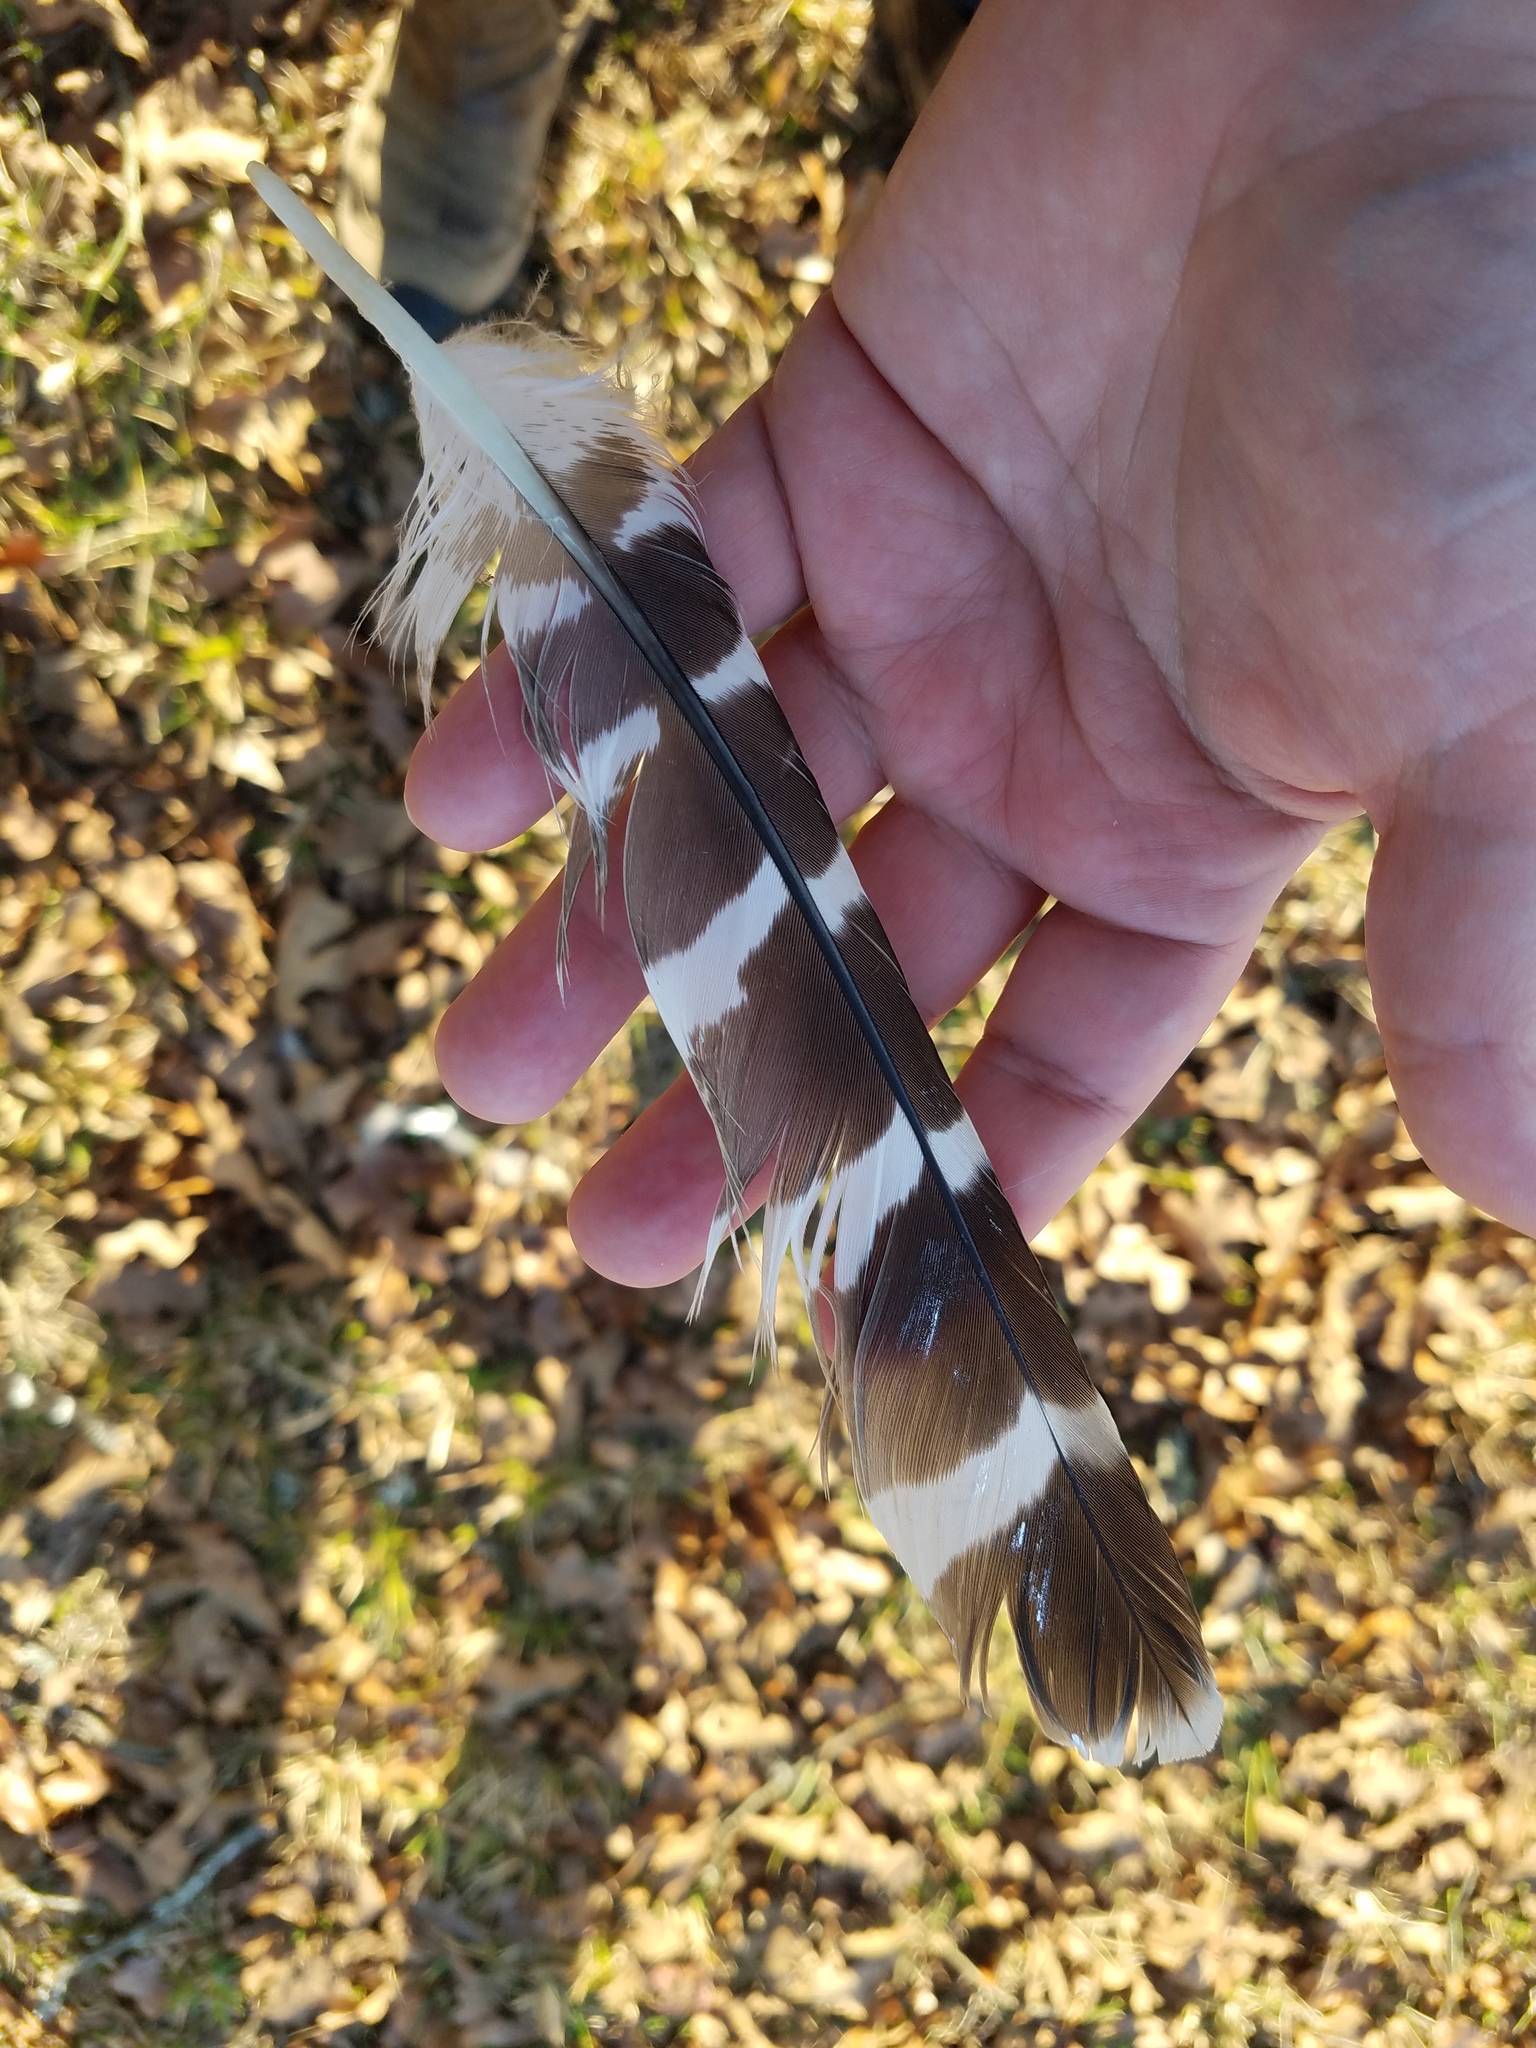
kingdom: Animalia
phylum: Chordata
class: Aves
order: Accipitriformes
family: Accipitridae
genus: Buteo
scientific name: Buteo lineatus
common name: Red-shouldered hawk
